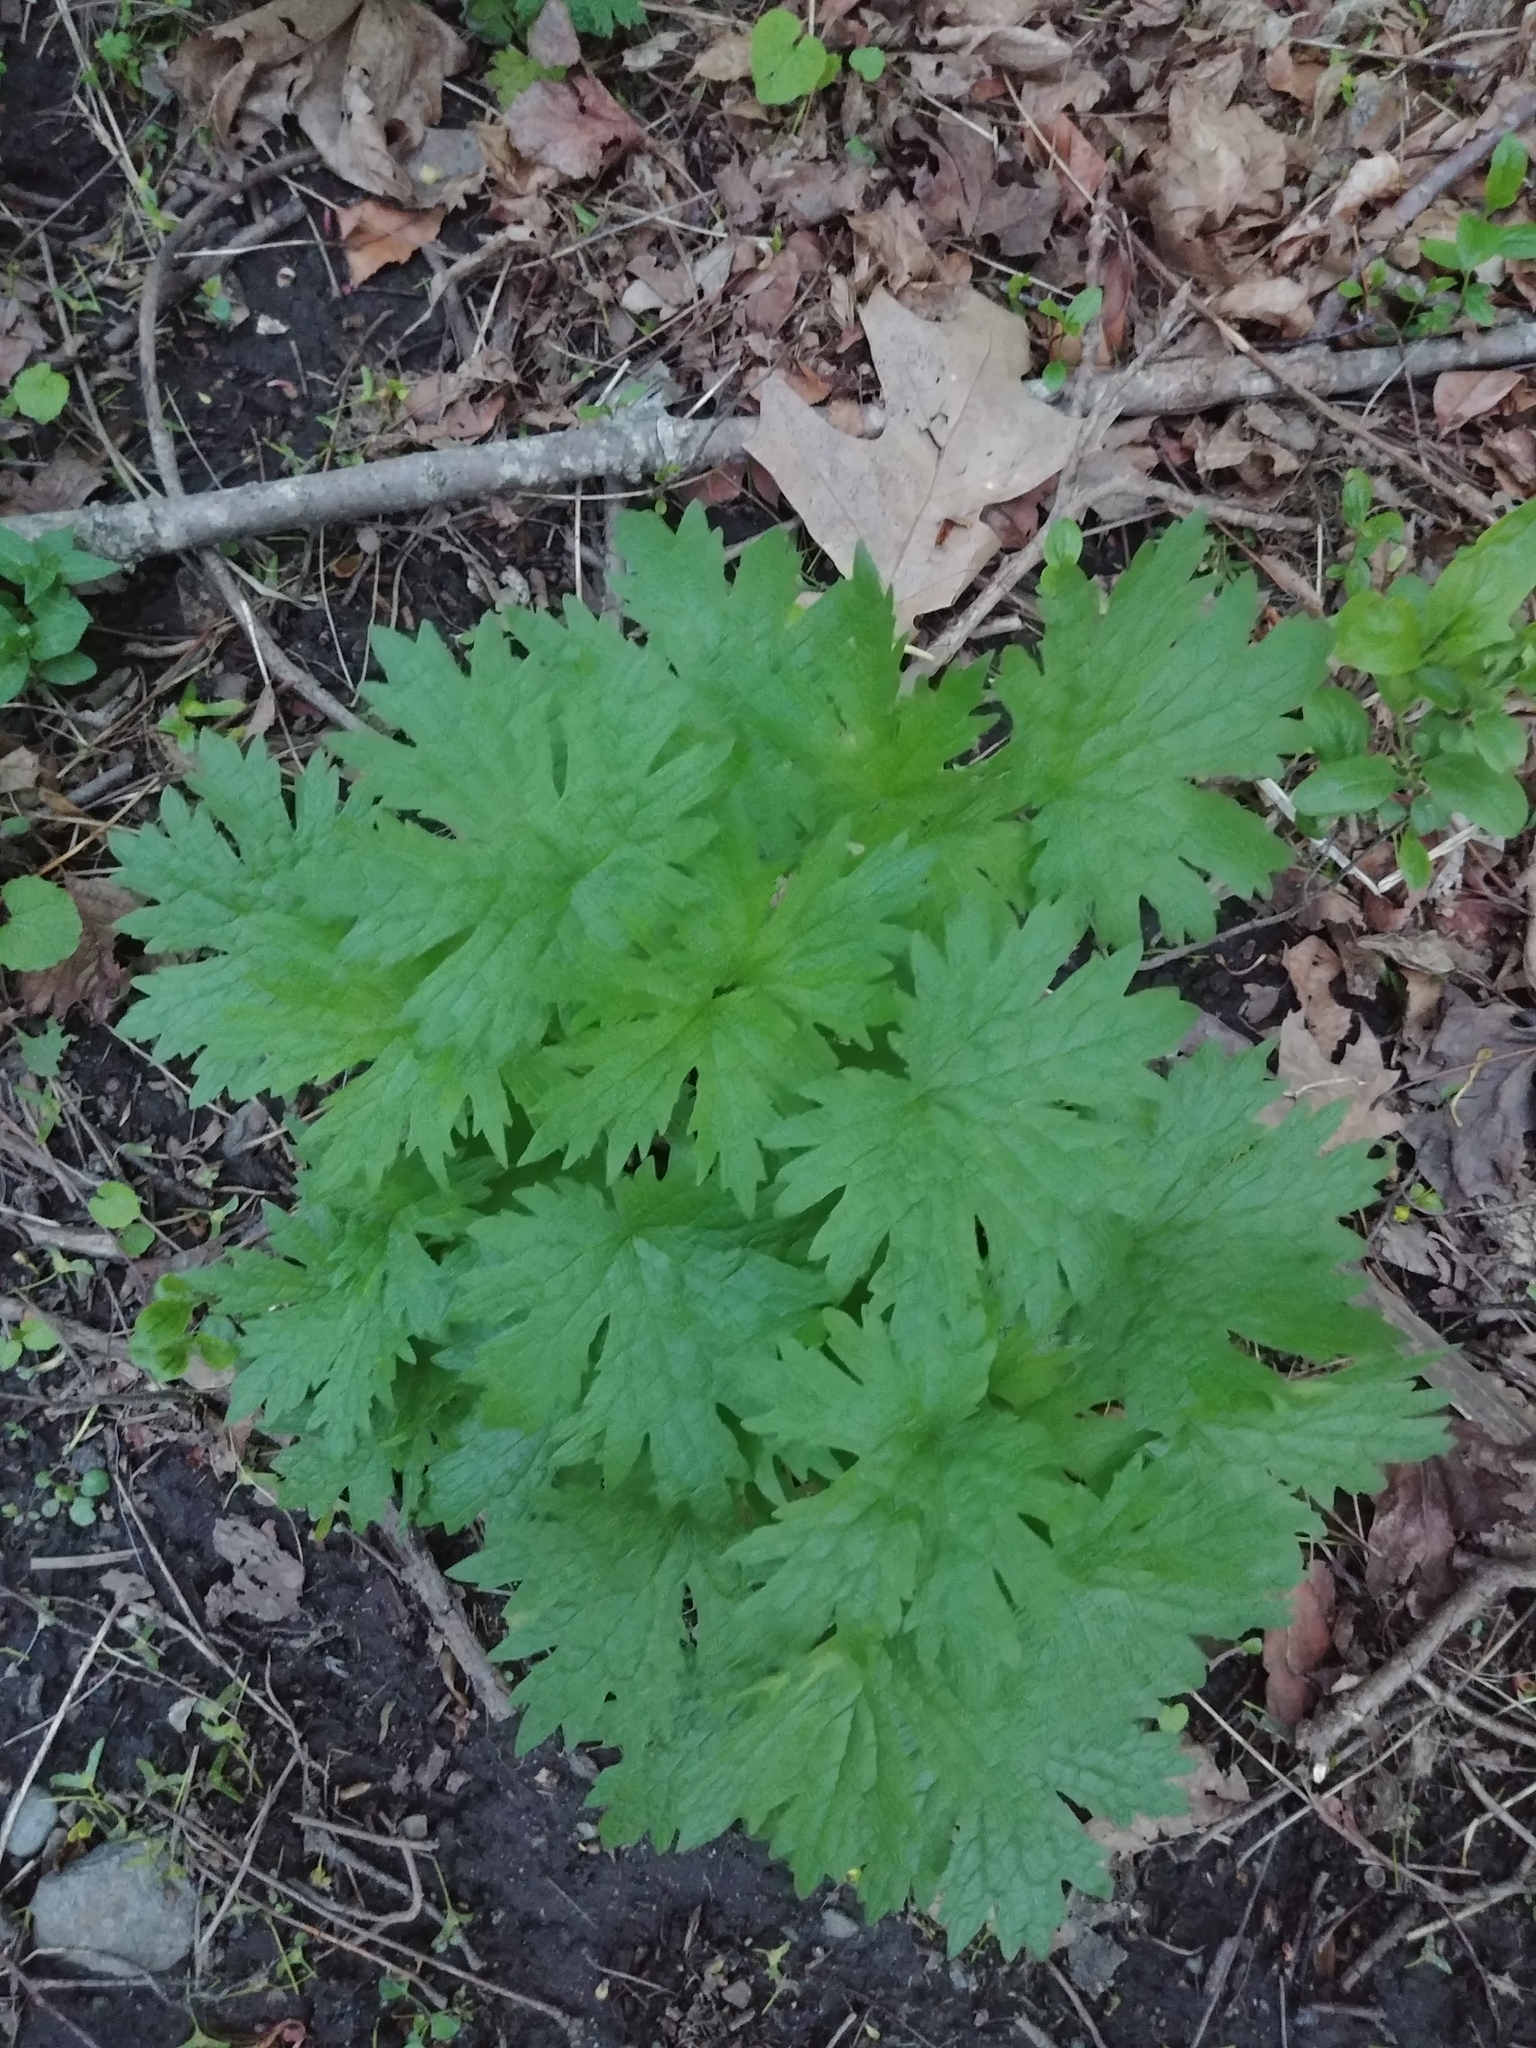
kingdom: Plantae
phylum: Tracheophyta
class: Magnoliopsida
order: Lamiales
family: Lamiaceae
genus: Leonurus
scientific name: Leonurus cardiaca
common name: Motherwort
